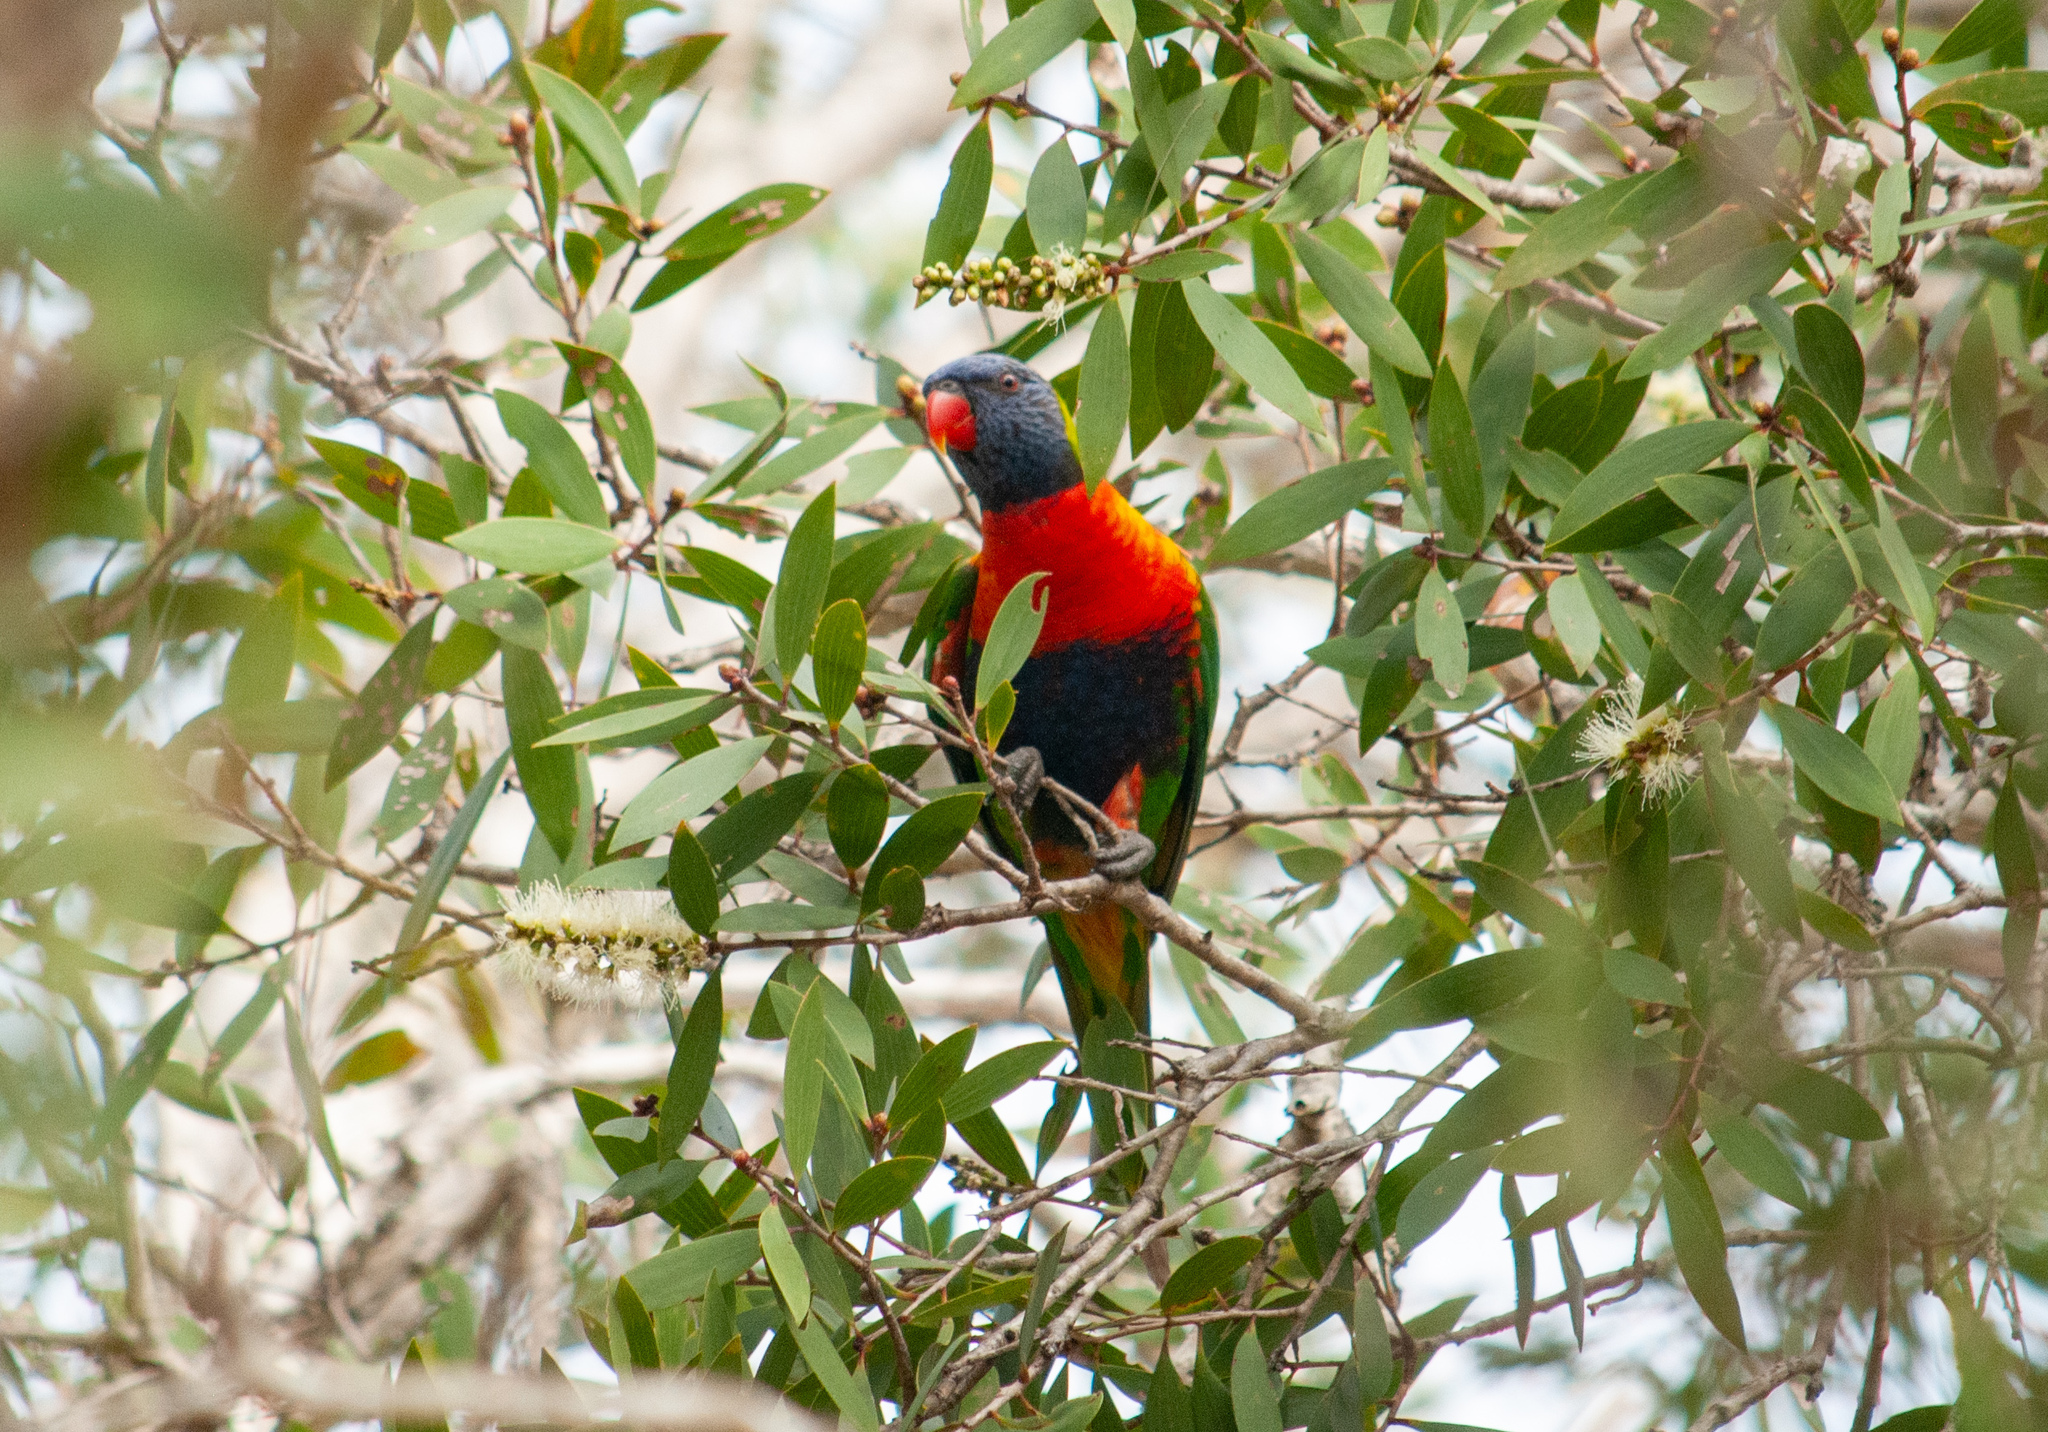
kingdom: Animalia
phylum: Chordata
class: Aves
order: Psittaciformes
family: Psittacidae
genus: Trichoglossus
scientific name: Trichoglossus haematodus
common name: Coconut lorikeet
